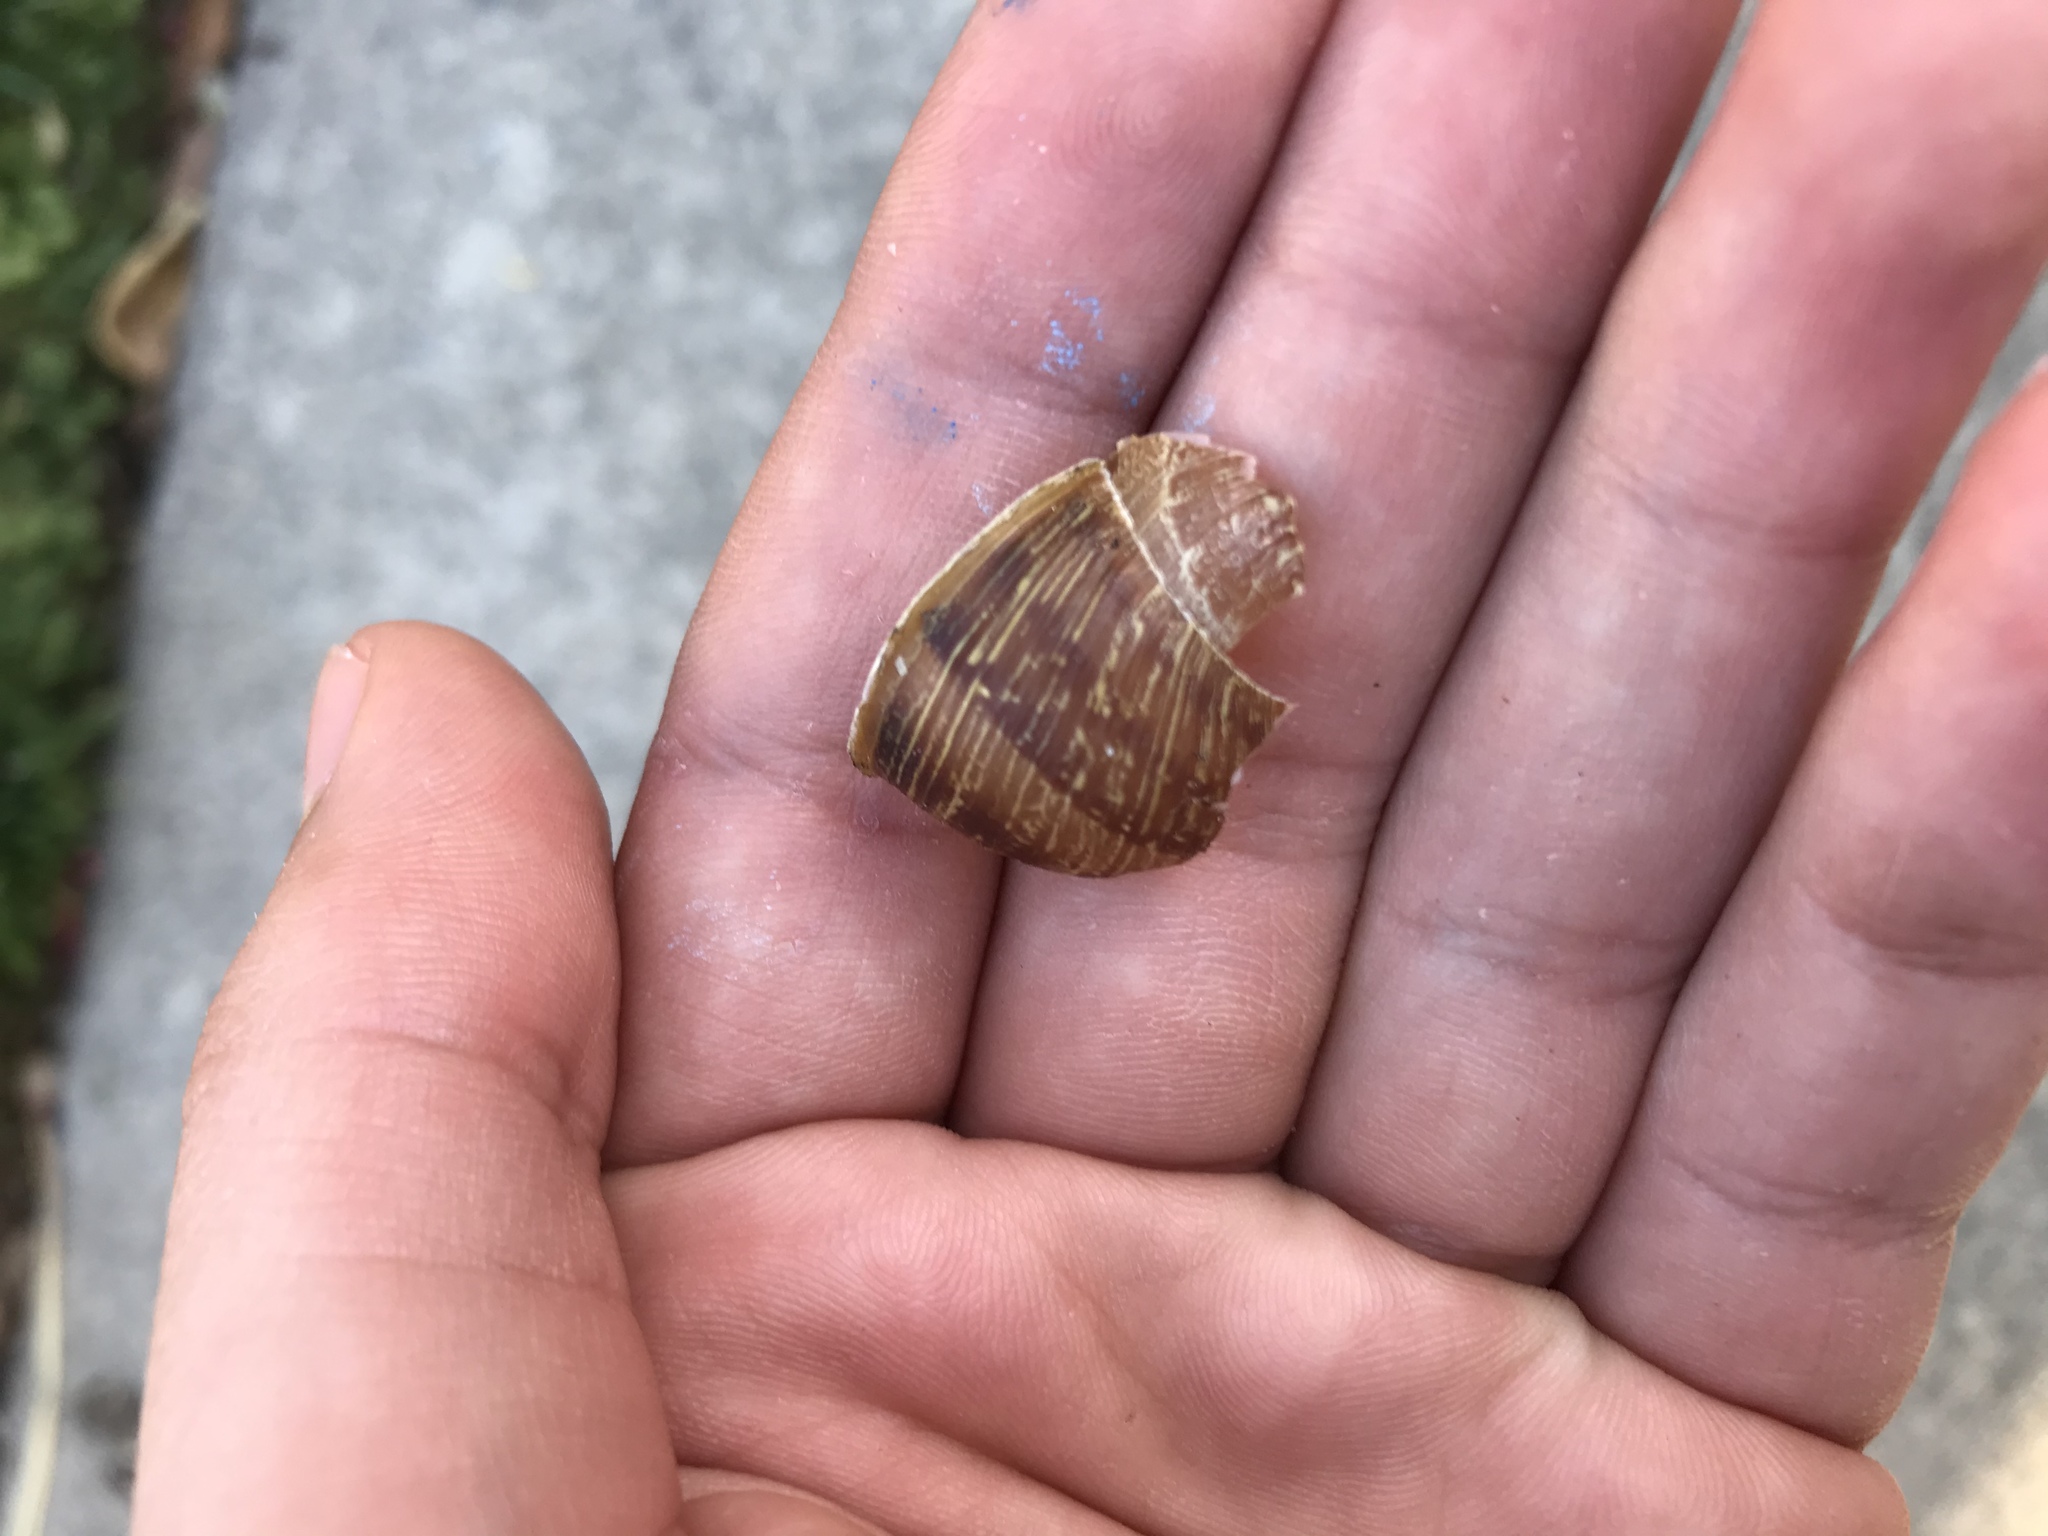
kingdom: Animalia
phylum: Mollusca
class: Gastropoda
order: Stylommatophora
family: Helicidae
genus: Cornu
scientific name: Cornu aspersum
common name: Brown garden snail
